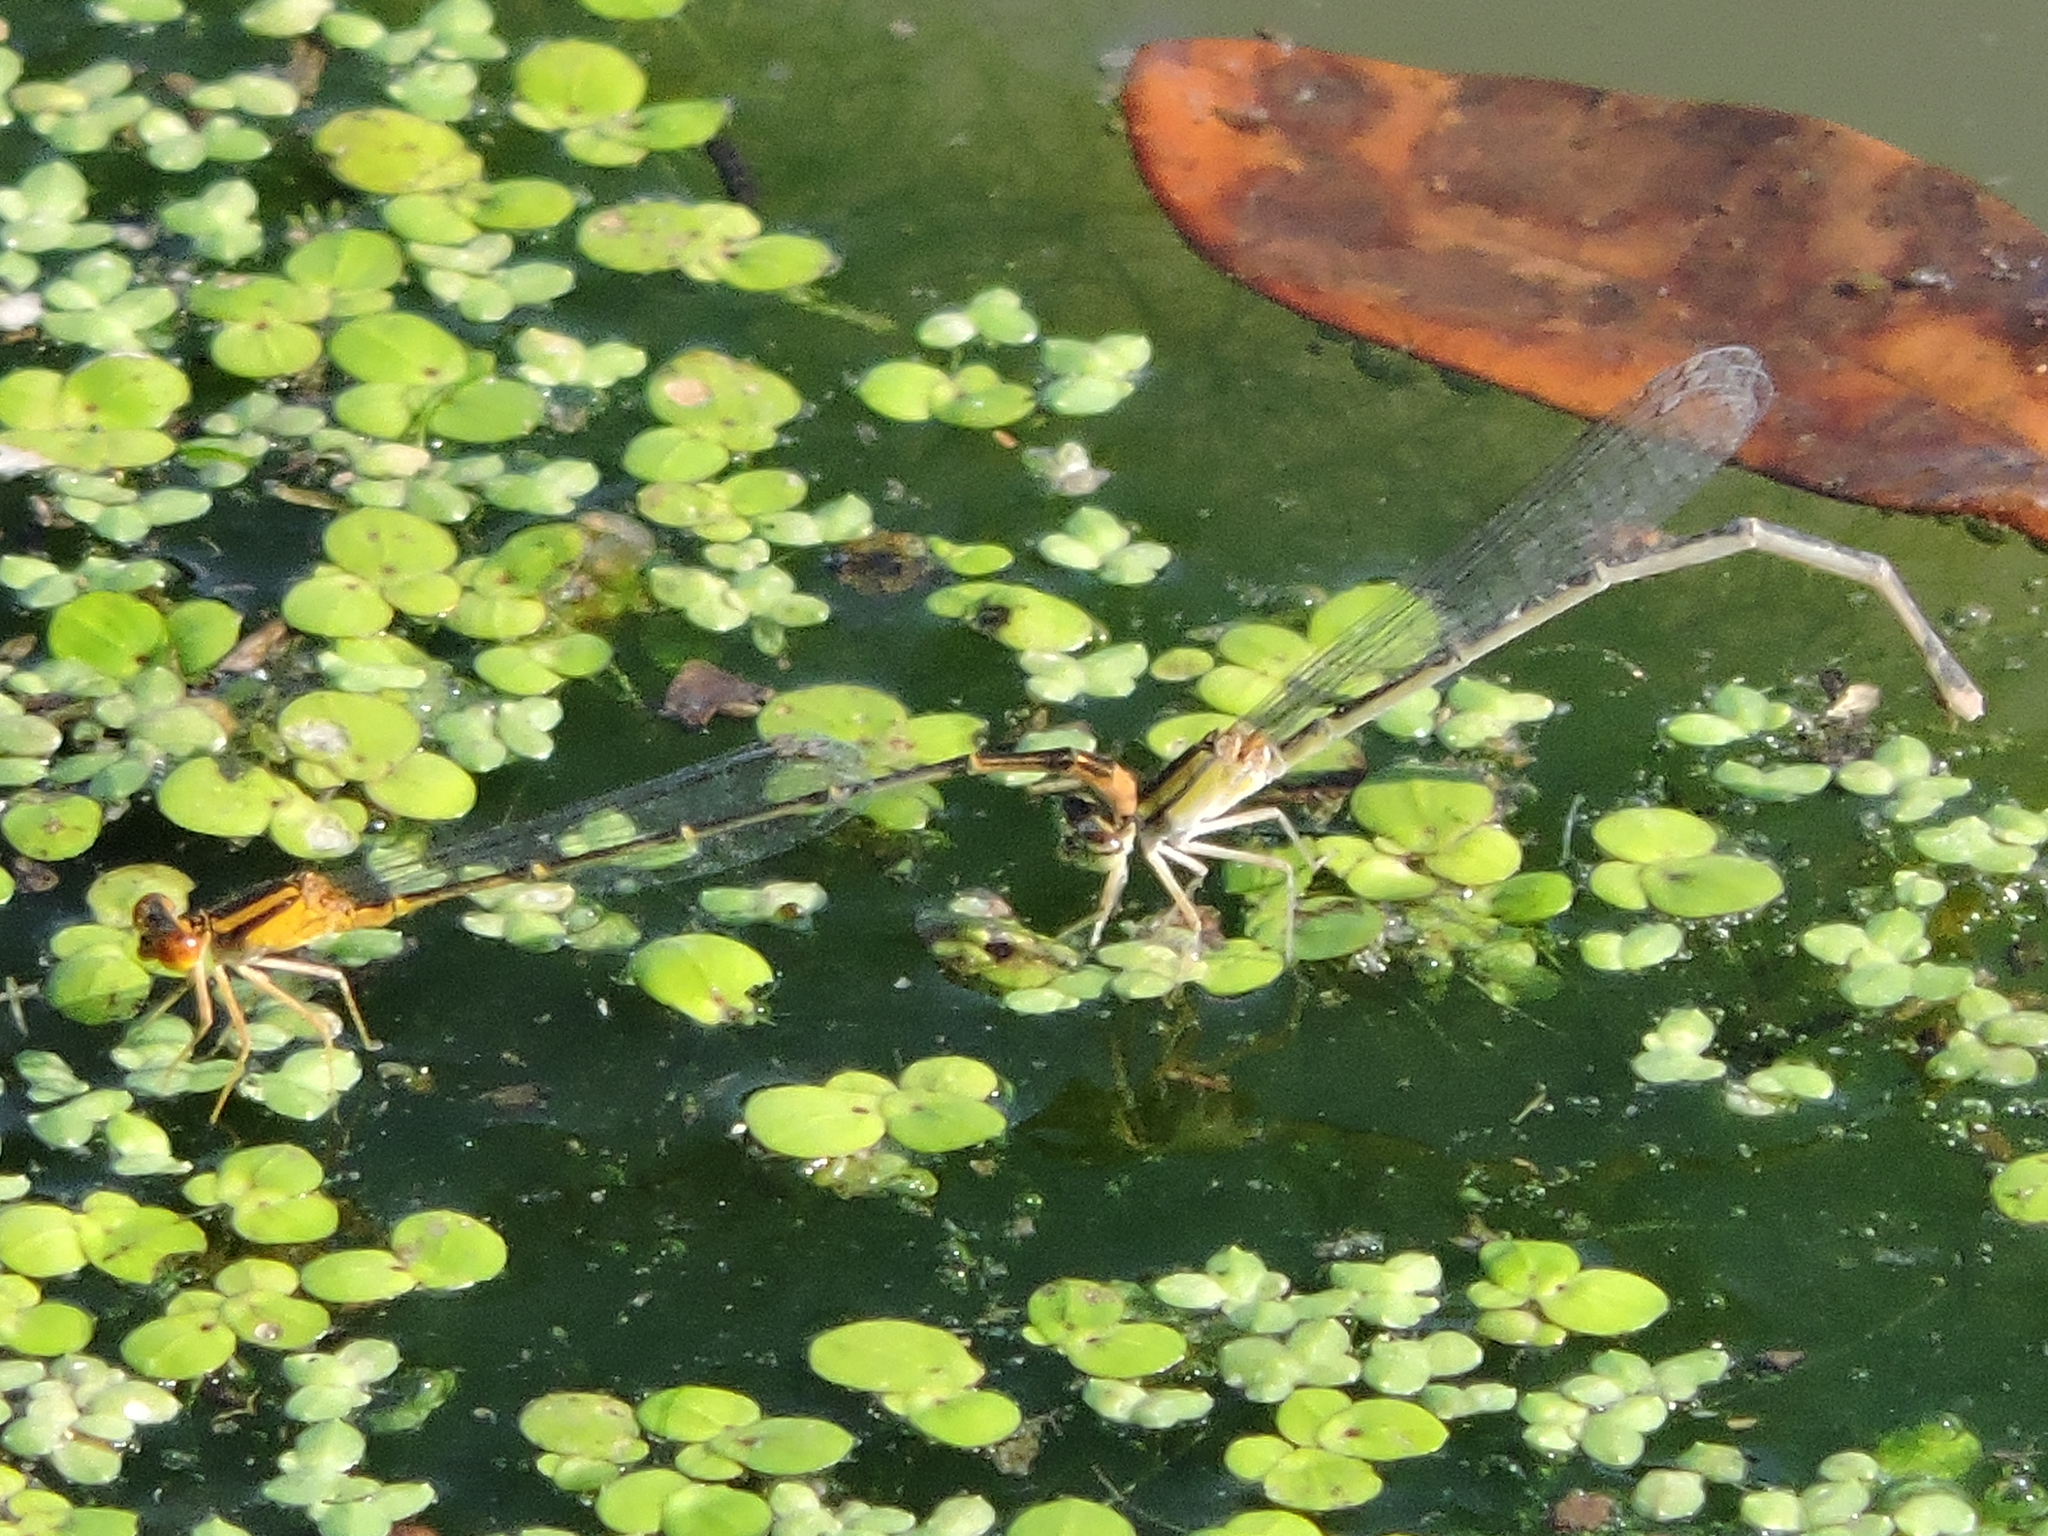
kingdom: Animalia
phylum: Arthropoda
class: Insecta
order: Odonata
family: Coenagrionidae
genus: Enallagma
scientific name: Enallagma signatum
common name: Orange bluet
